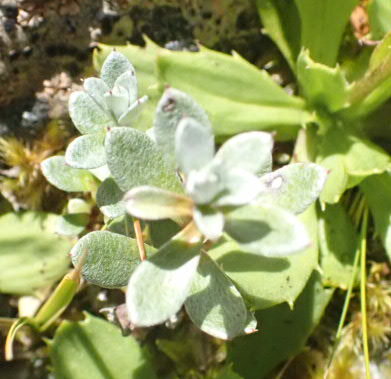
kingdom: Plantae
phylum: Tracheophyta
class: Magnoliopsida
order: Asterales
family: Asteraceae
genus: Anaphalioides
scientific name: Anaphalioides bellidioides
